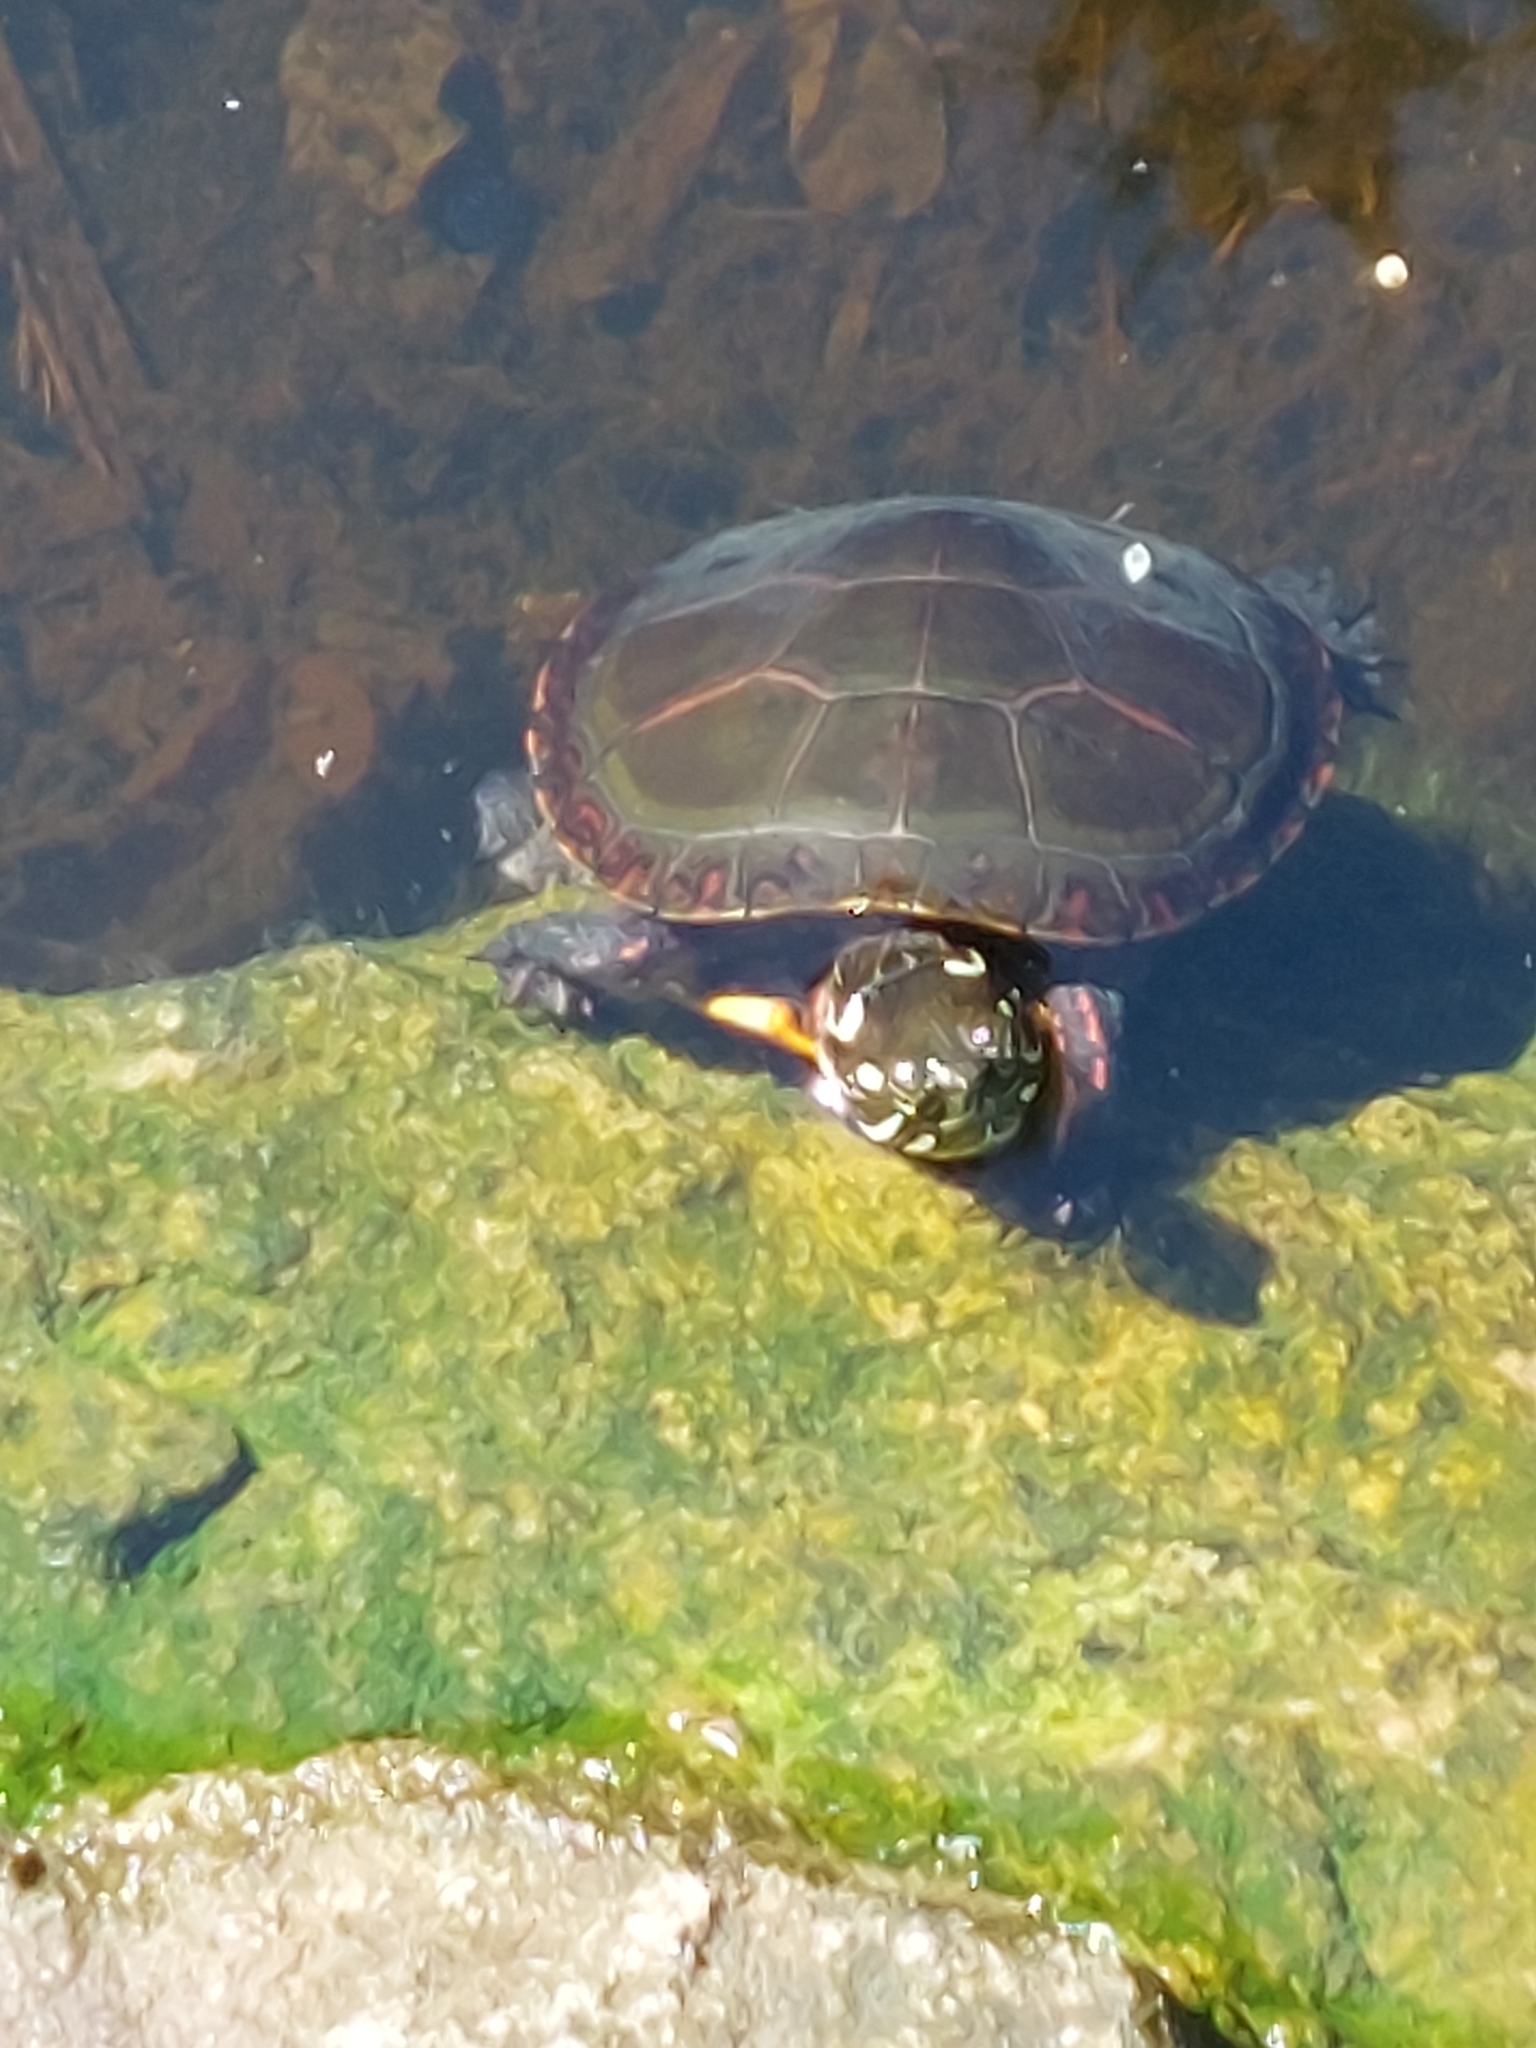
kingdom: Animalia
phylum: Chordata
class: Testudines
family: Emydidae
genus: Chrysemys
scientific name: Chrysemys picta
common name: Painted turtle
